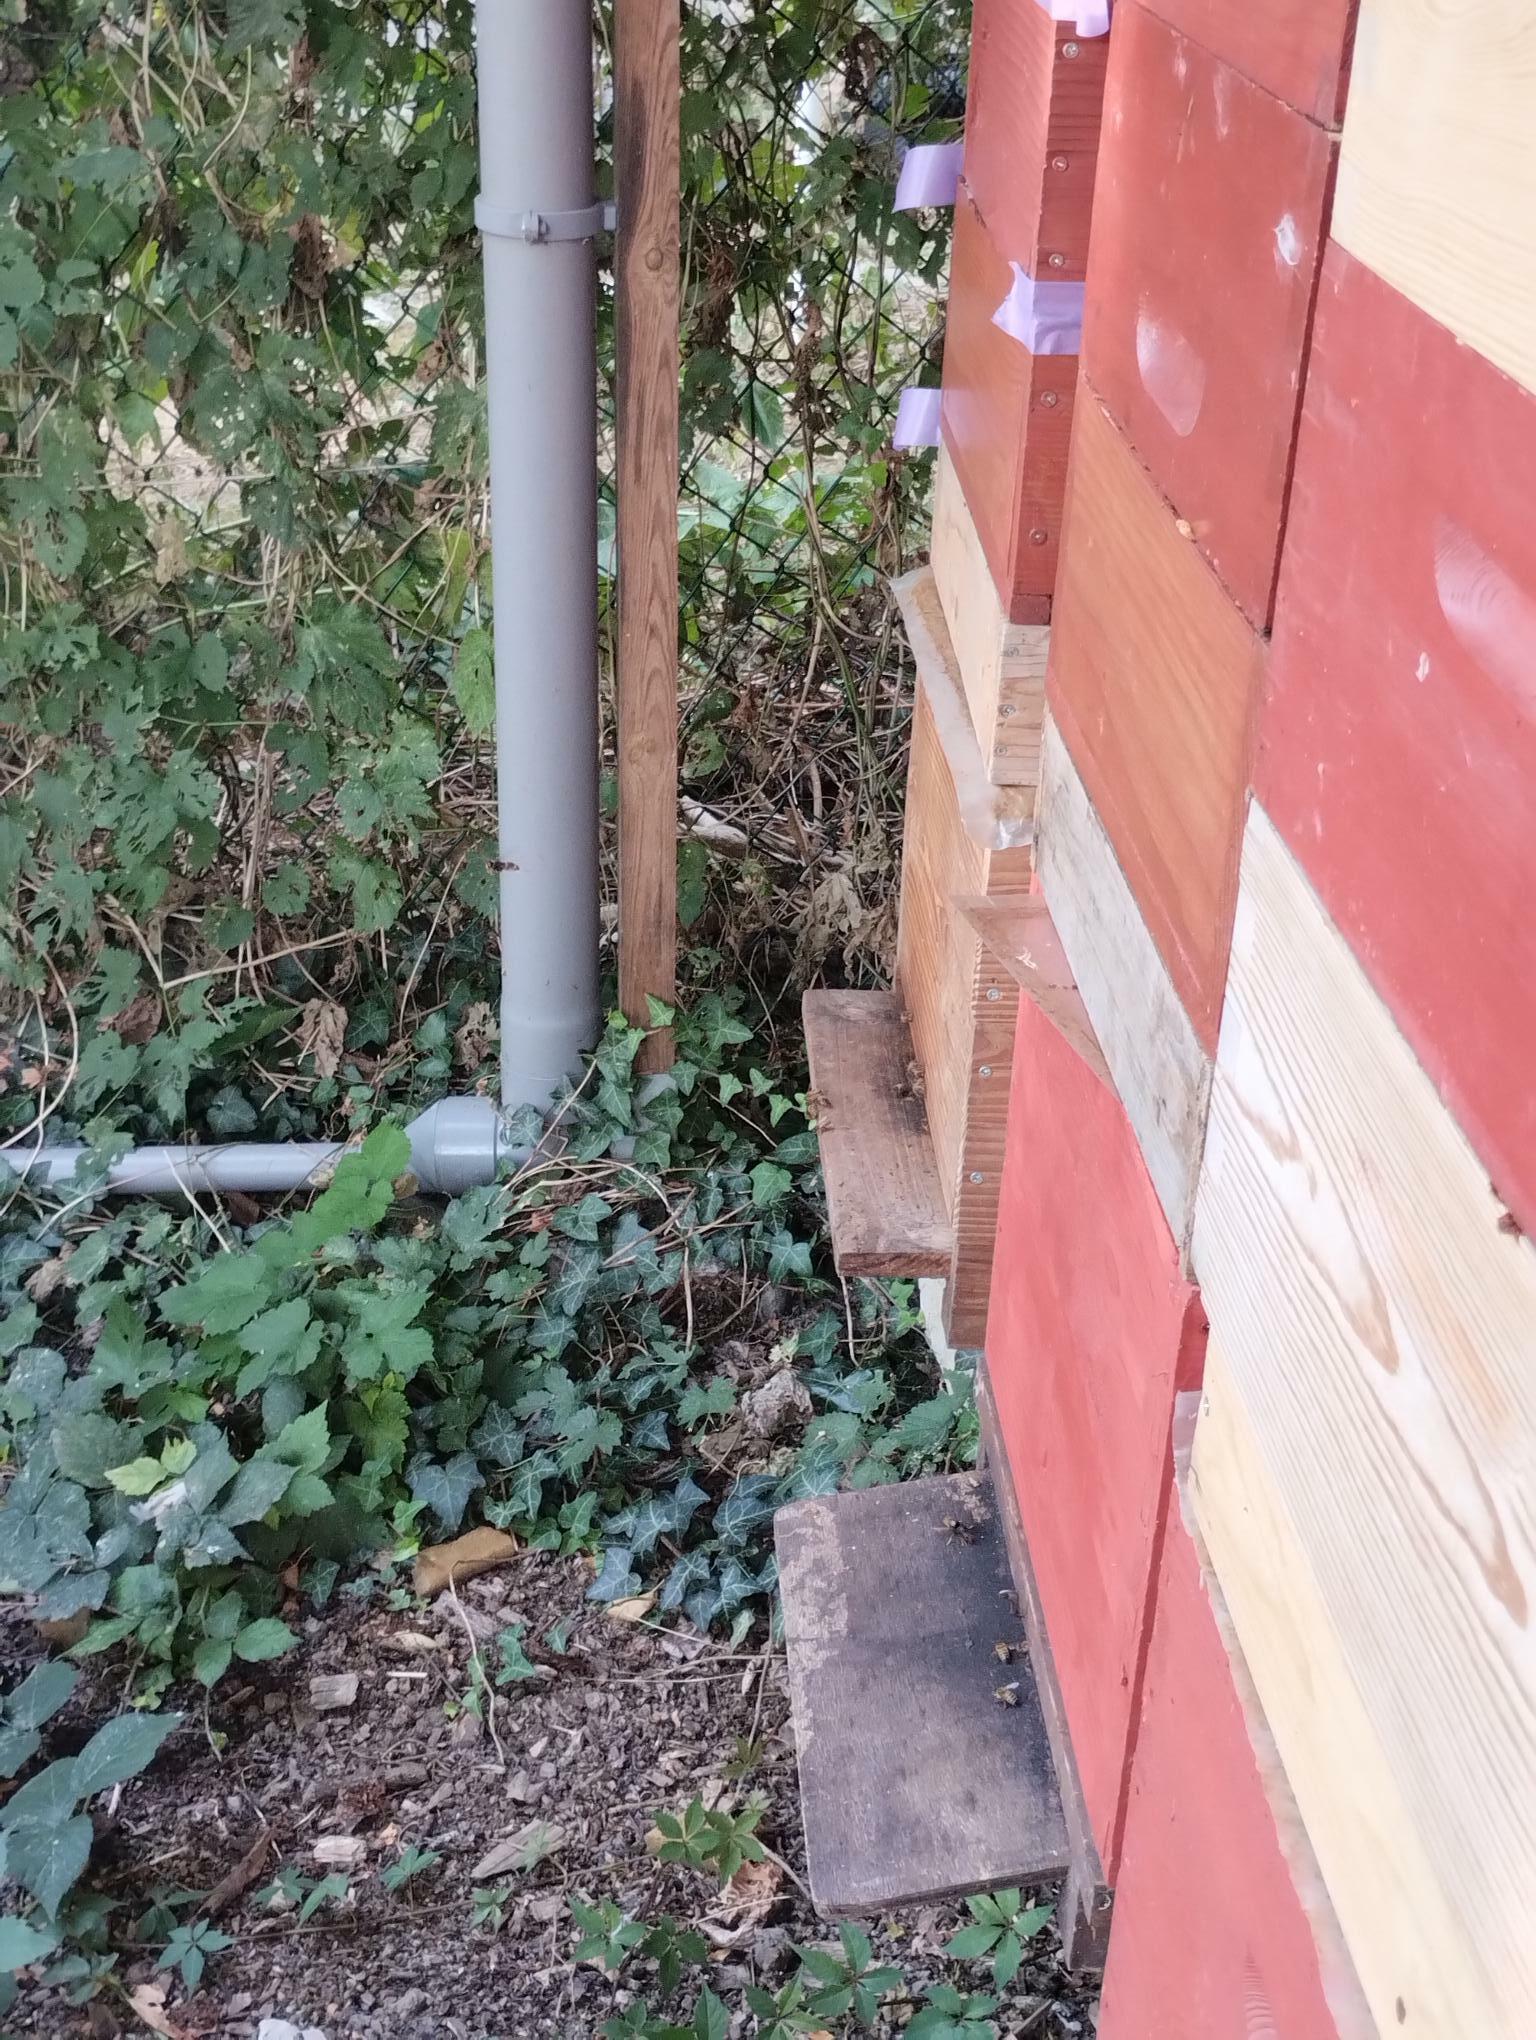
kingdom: Animalia
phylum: Arthropoda
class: Insecta
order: Hymenoptera
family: Vespidae
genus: Vespa
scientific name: Vespa velutina
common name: Asian hornet
